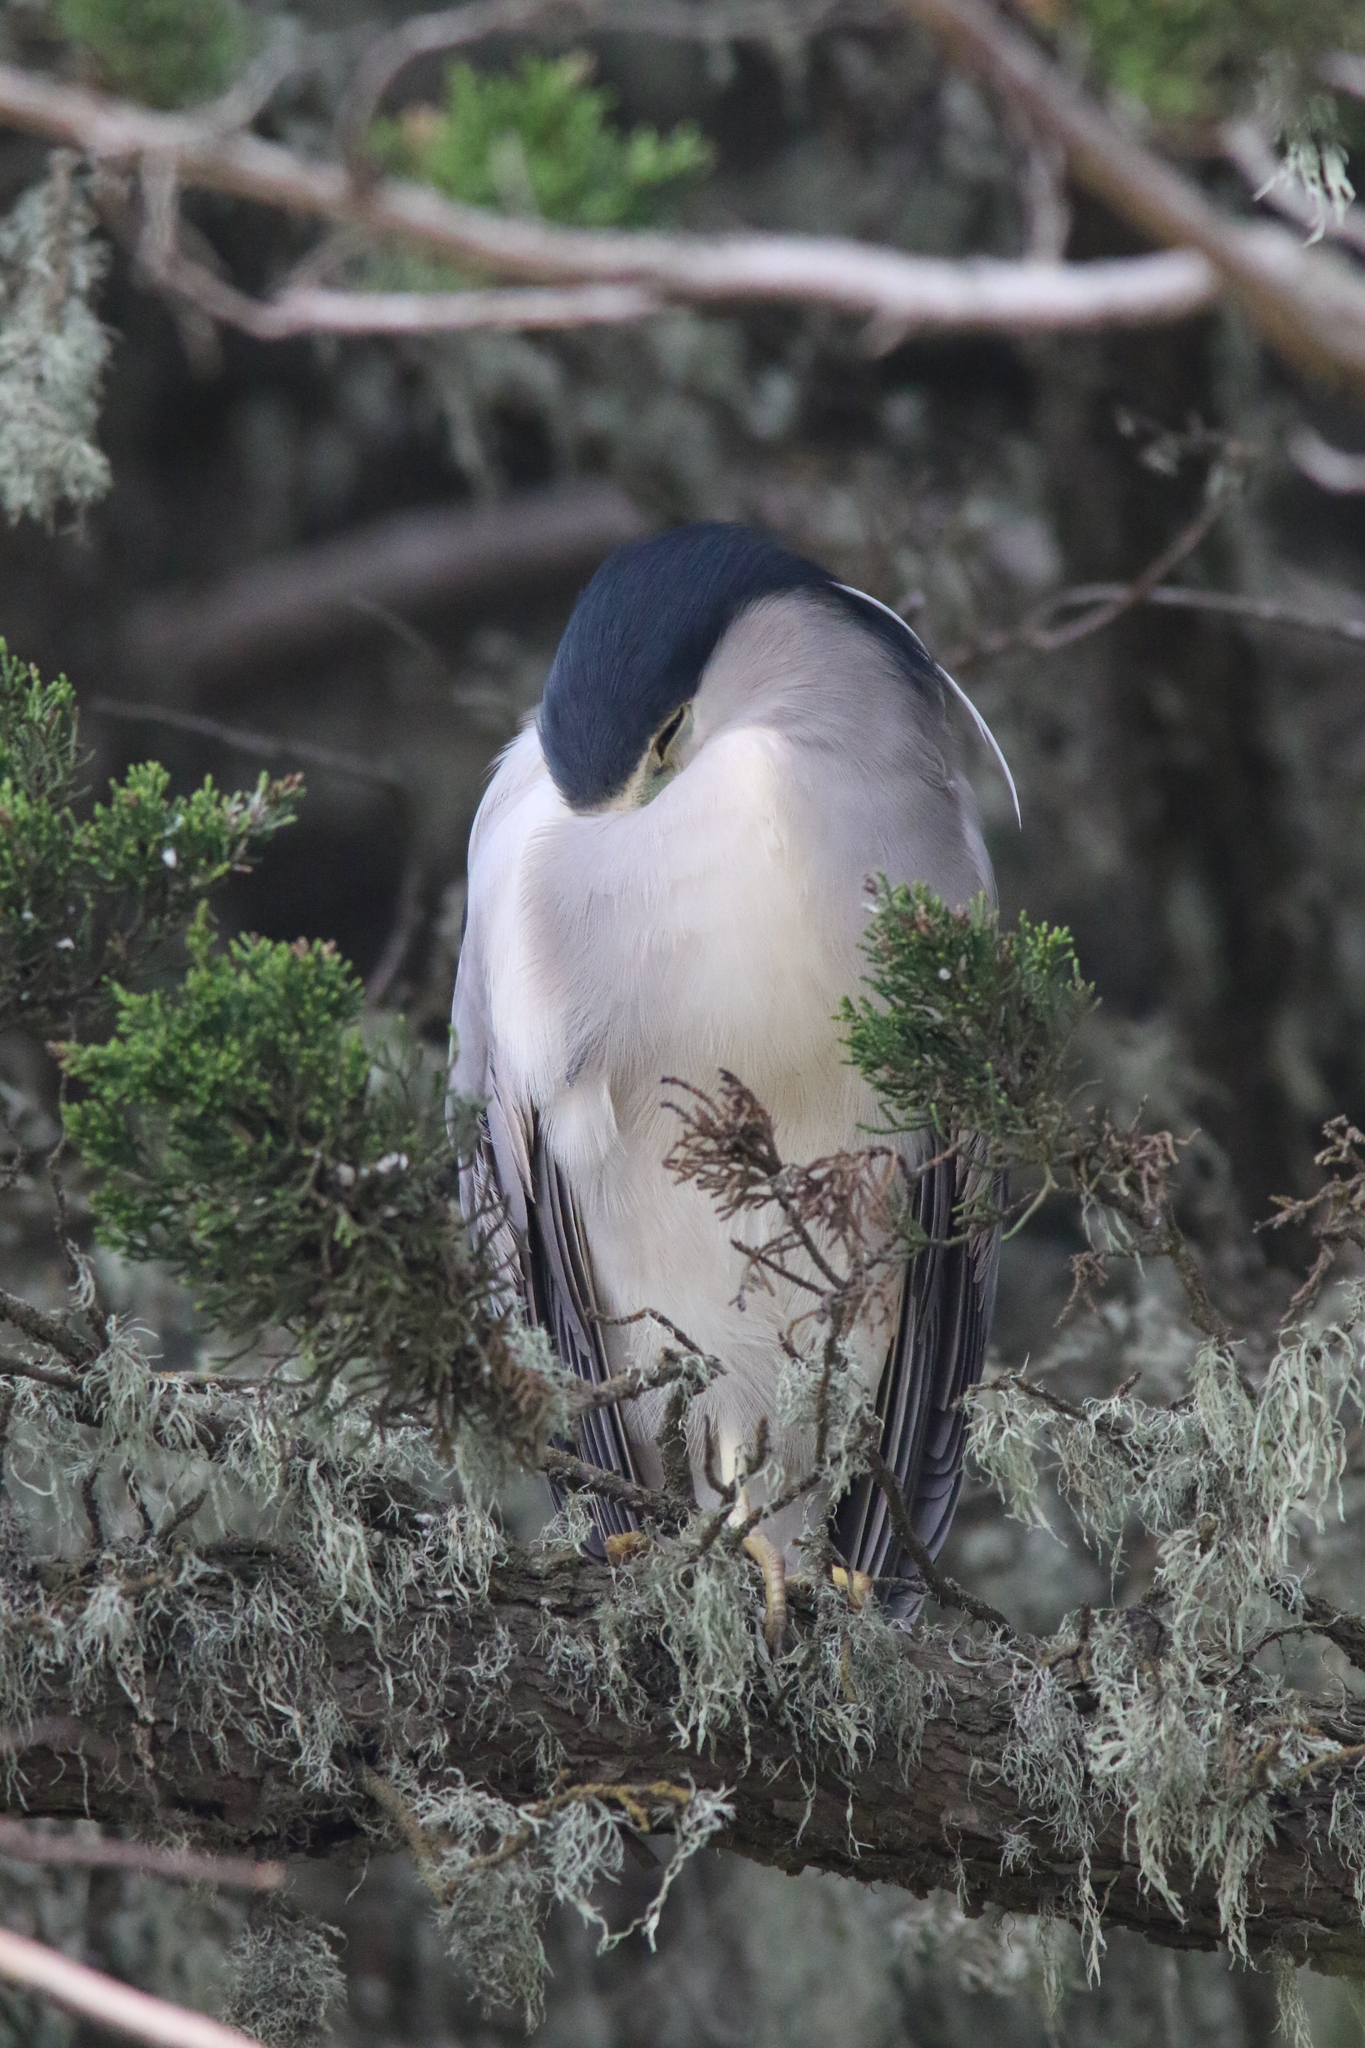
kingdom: Animalia
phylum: Chordata
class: Aves
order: Pelecaniformes
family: Ardeidae
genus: Nycticorax
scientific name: Nycticorax nycticorax
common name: Black-crowned night heron
